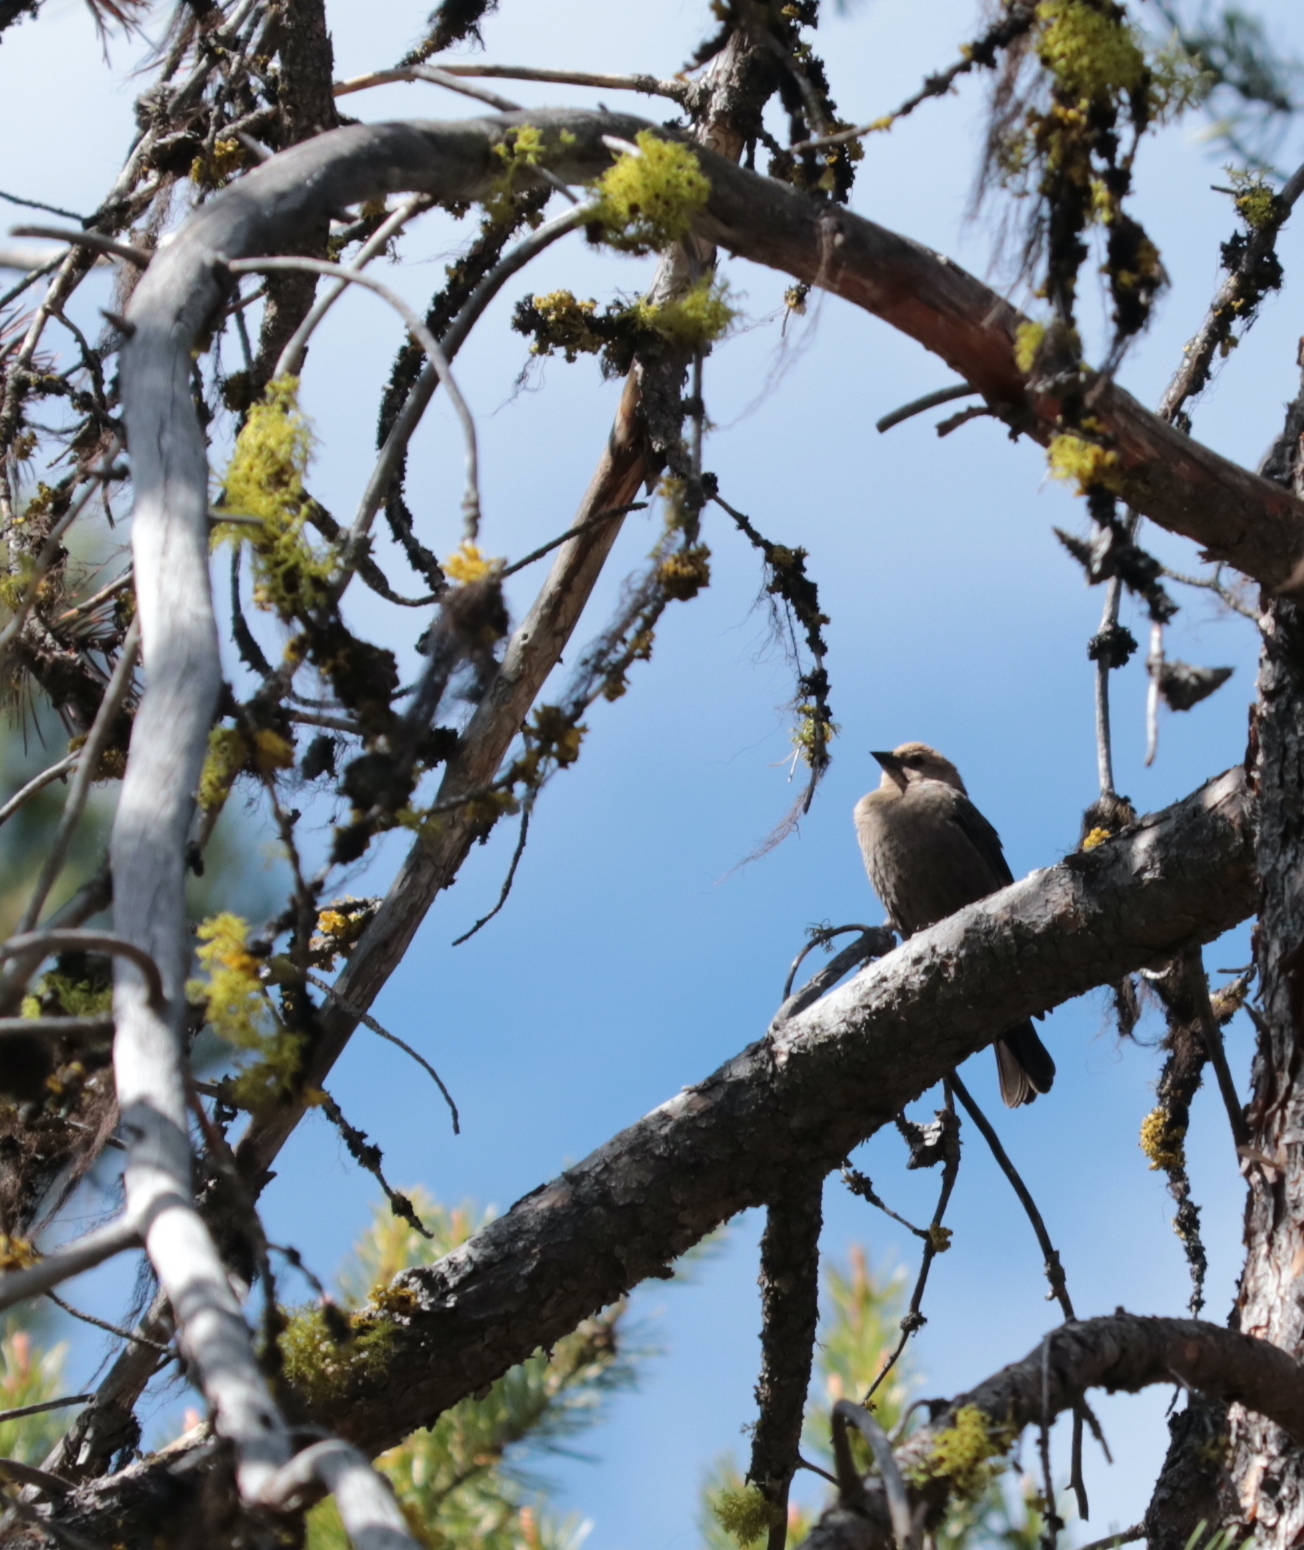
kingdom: Animalia
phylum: Chordata
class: Aves
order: Passeriformes
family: Icteridae
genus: Molothrus
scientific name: Molothrus ater
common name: Brown-headed cowbird
